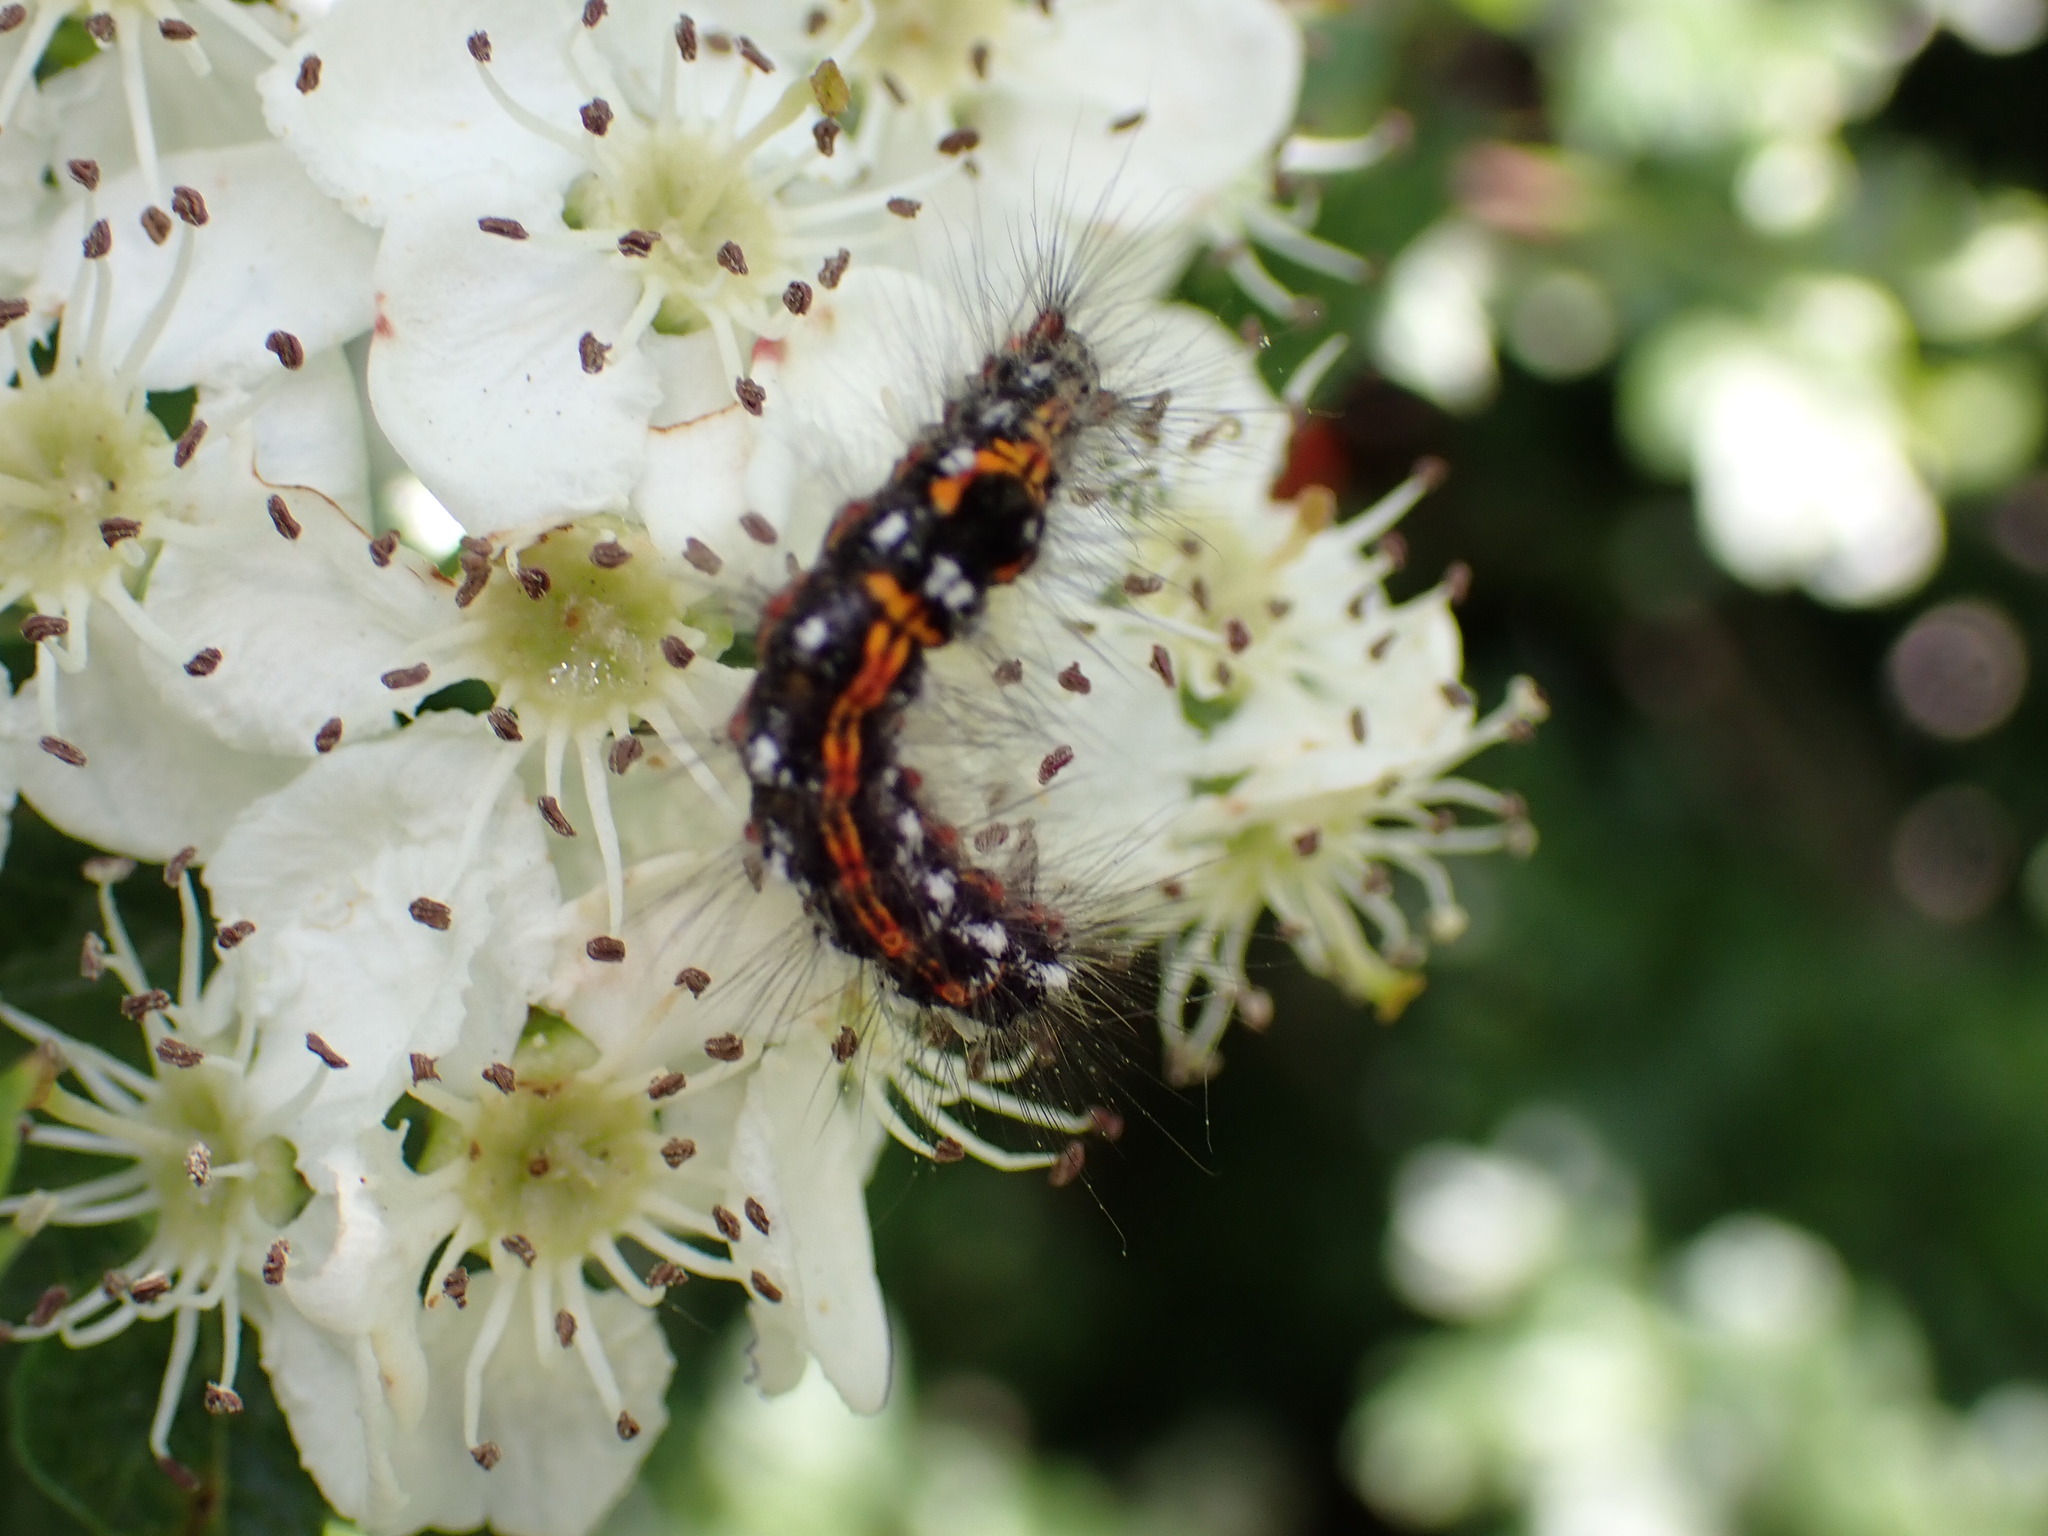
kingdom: Animalia
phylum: Arthropoda
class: Insecta
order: Lepidoptera
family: Erebidae
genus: Sphrageidus
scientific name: Sphrageidus similis
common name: Yellow-tail
